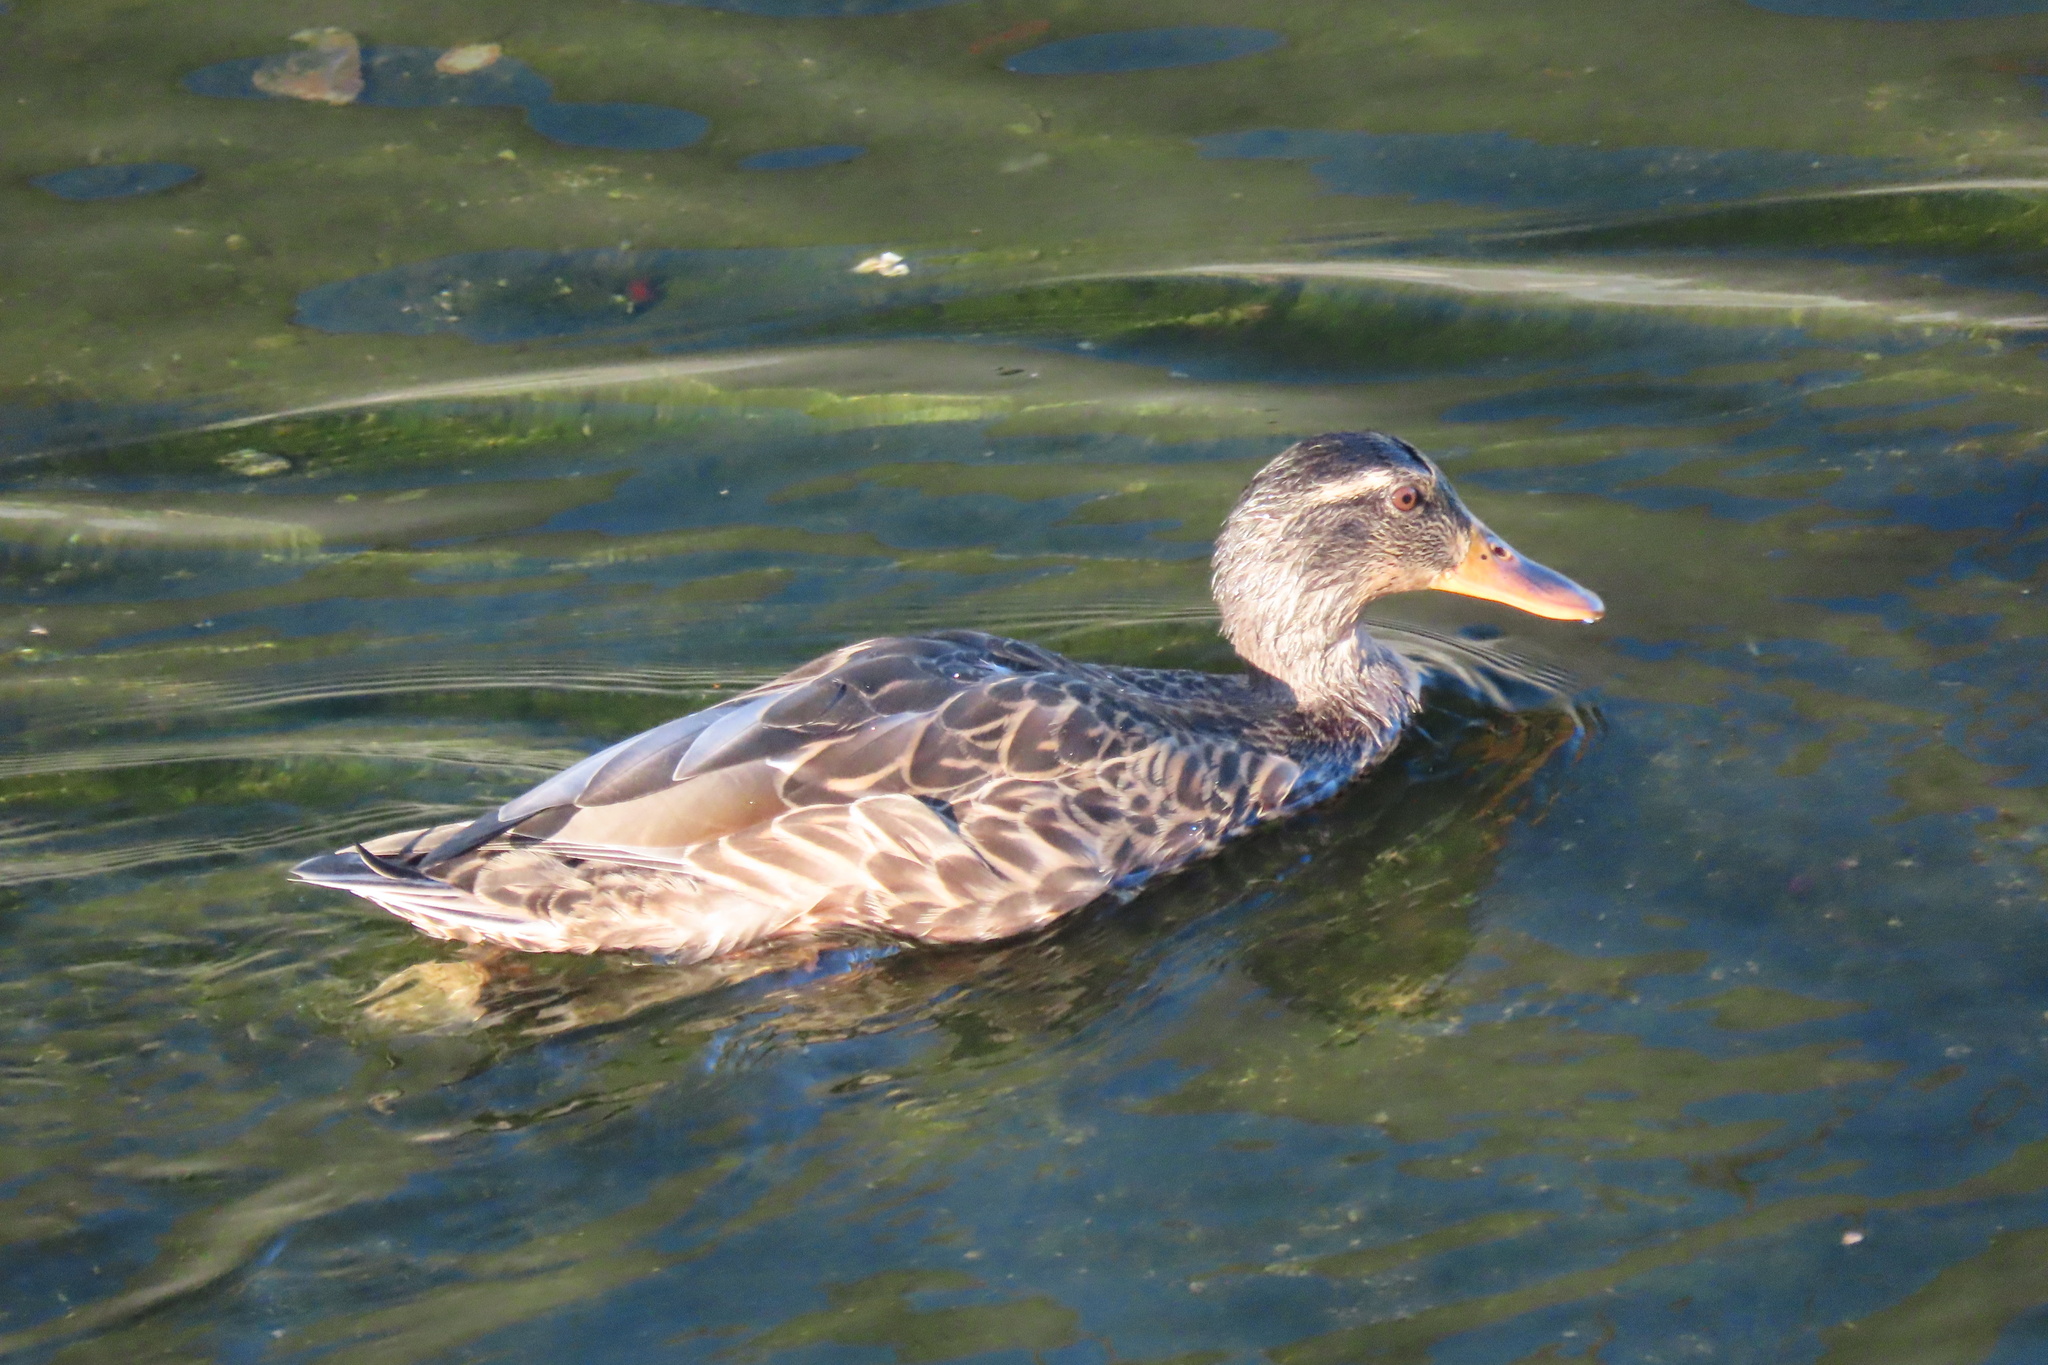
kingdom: Animalia
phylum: Chordata
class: Aves
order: Anseriformes
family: Anatidae
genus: Anas
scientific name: Anas platyrhynchos
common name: Mallard
